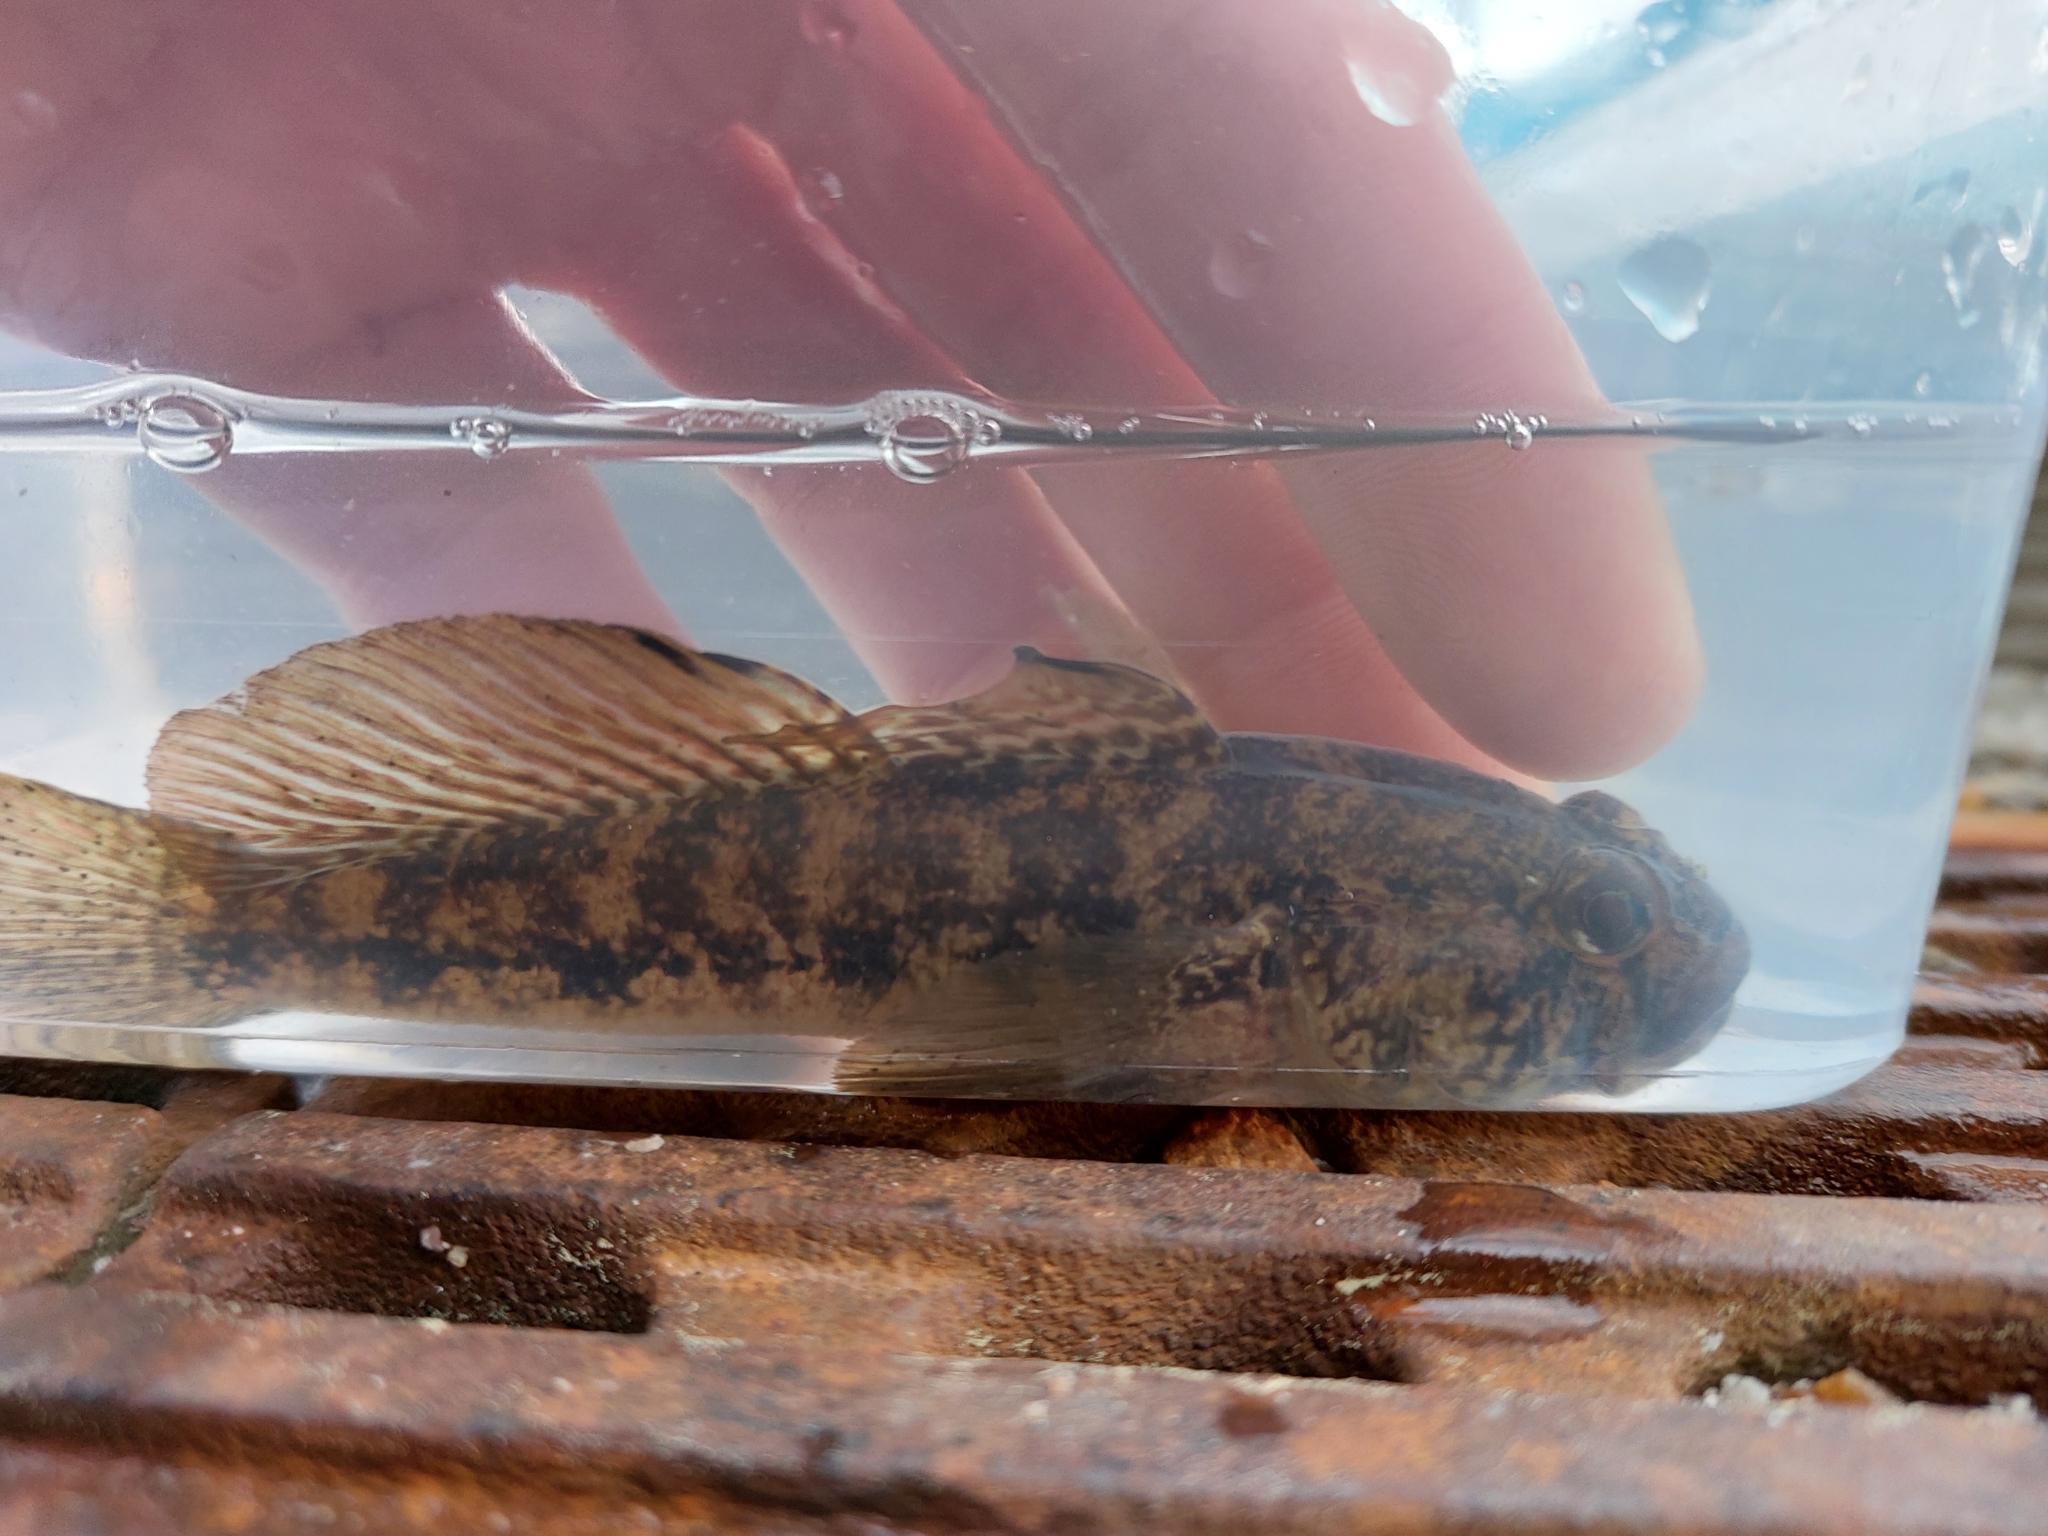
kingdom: Animalia
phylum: Chordata
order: Perciformes
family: Gobiidae
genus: Gobius
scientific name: Gobius niger
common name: Black goby
